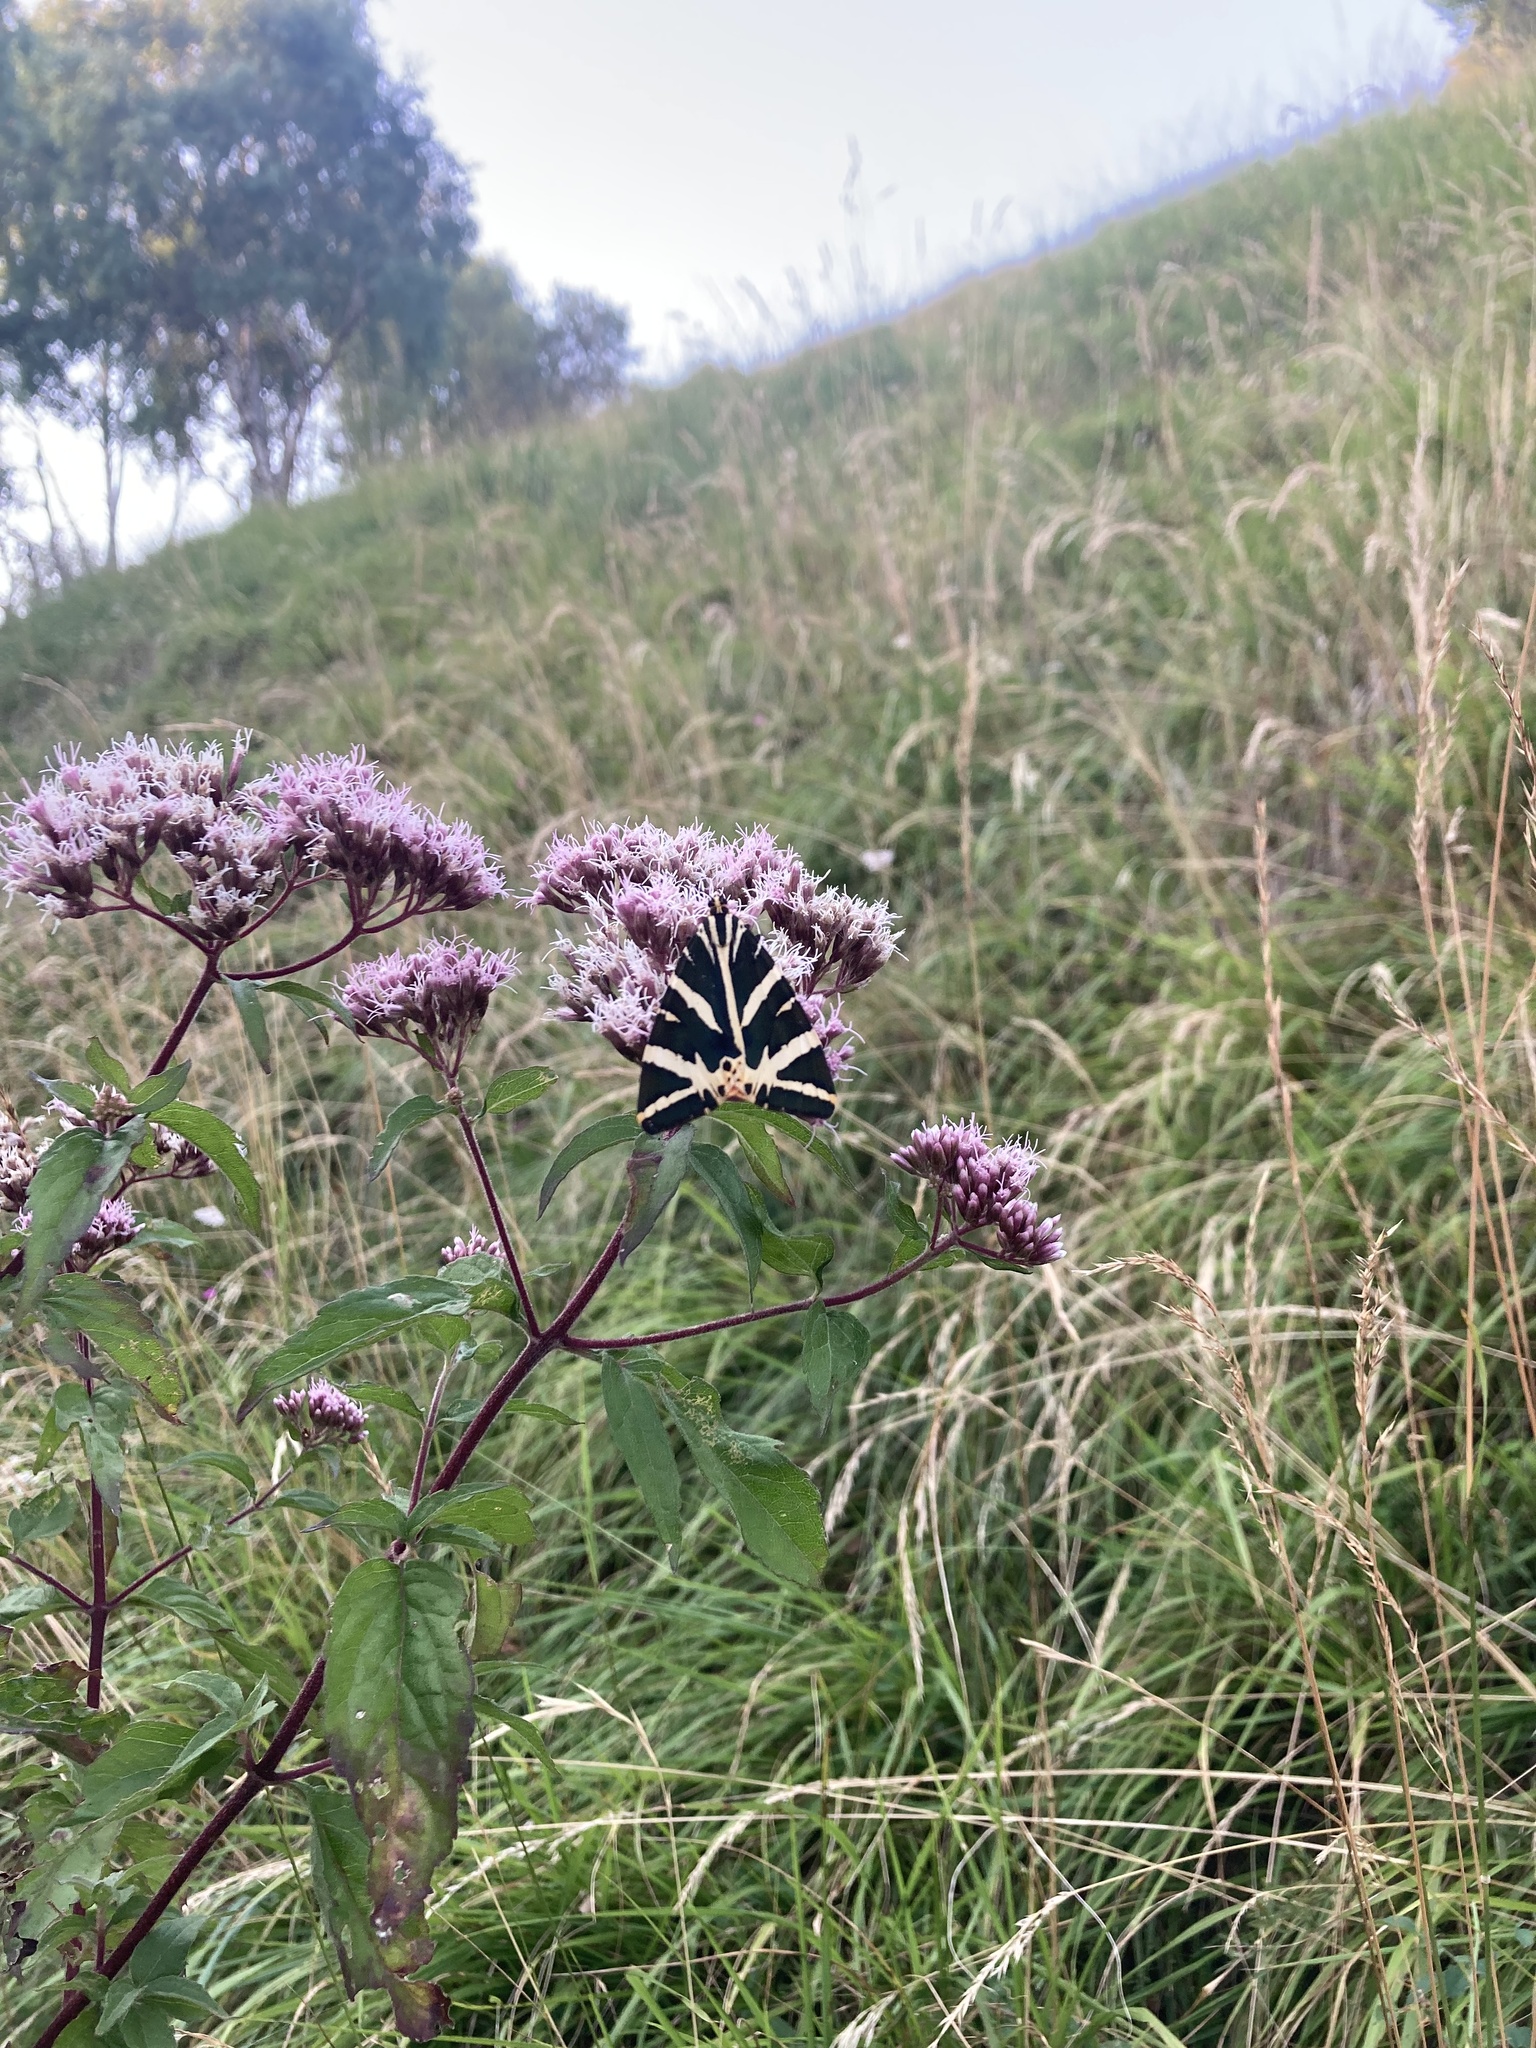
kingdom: Animalia
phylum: Arthropoda
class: Insecta
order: Lepidoptera
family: Erebidae
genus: Euplagia
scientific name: Euplagia quadripunctaria
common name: Jersey tiger
